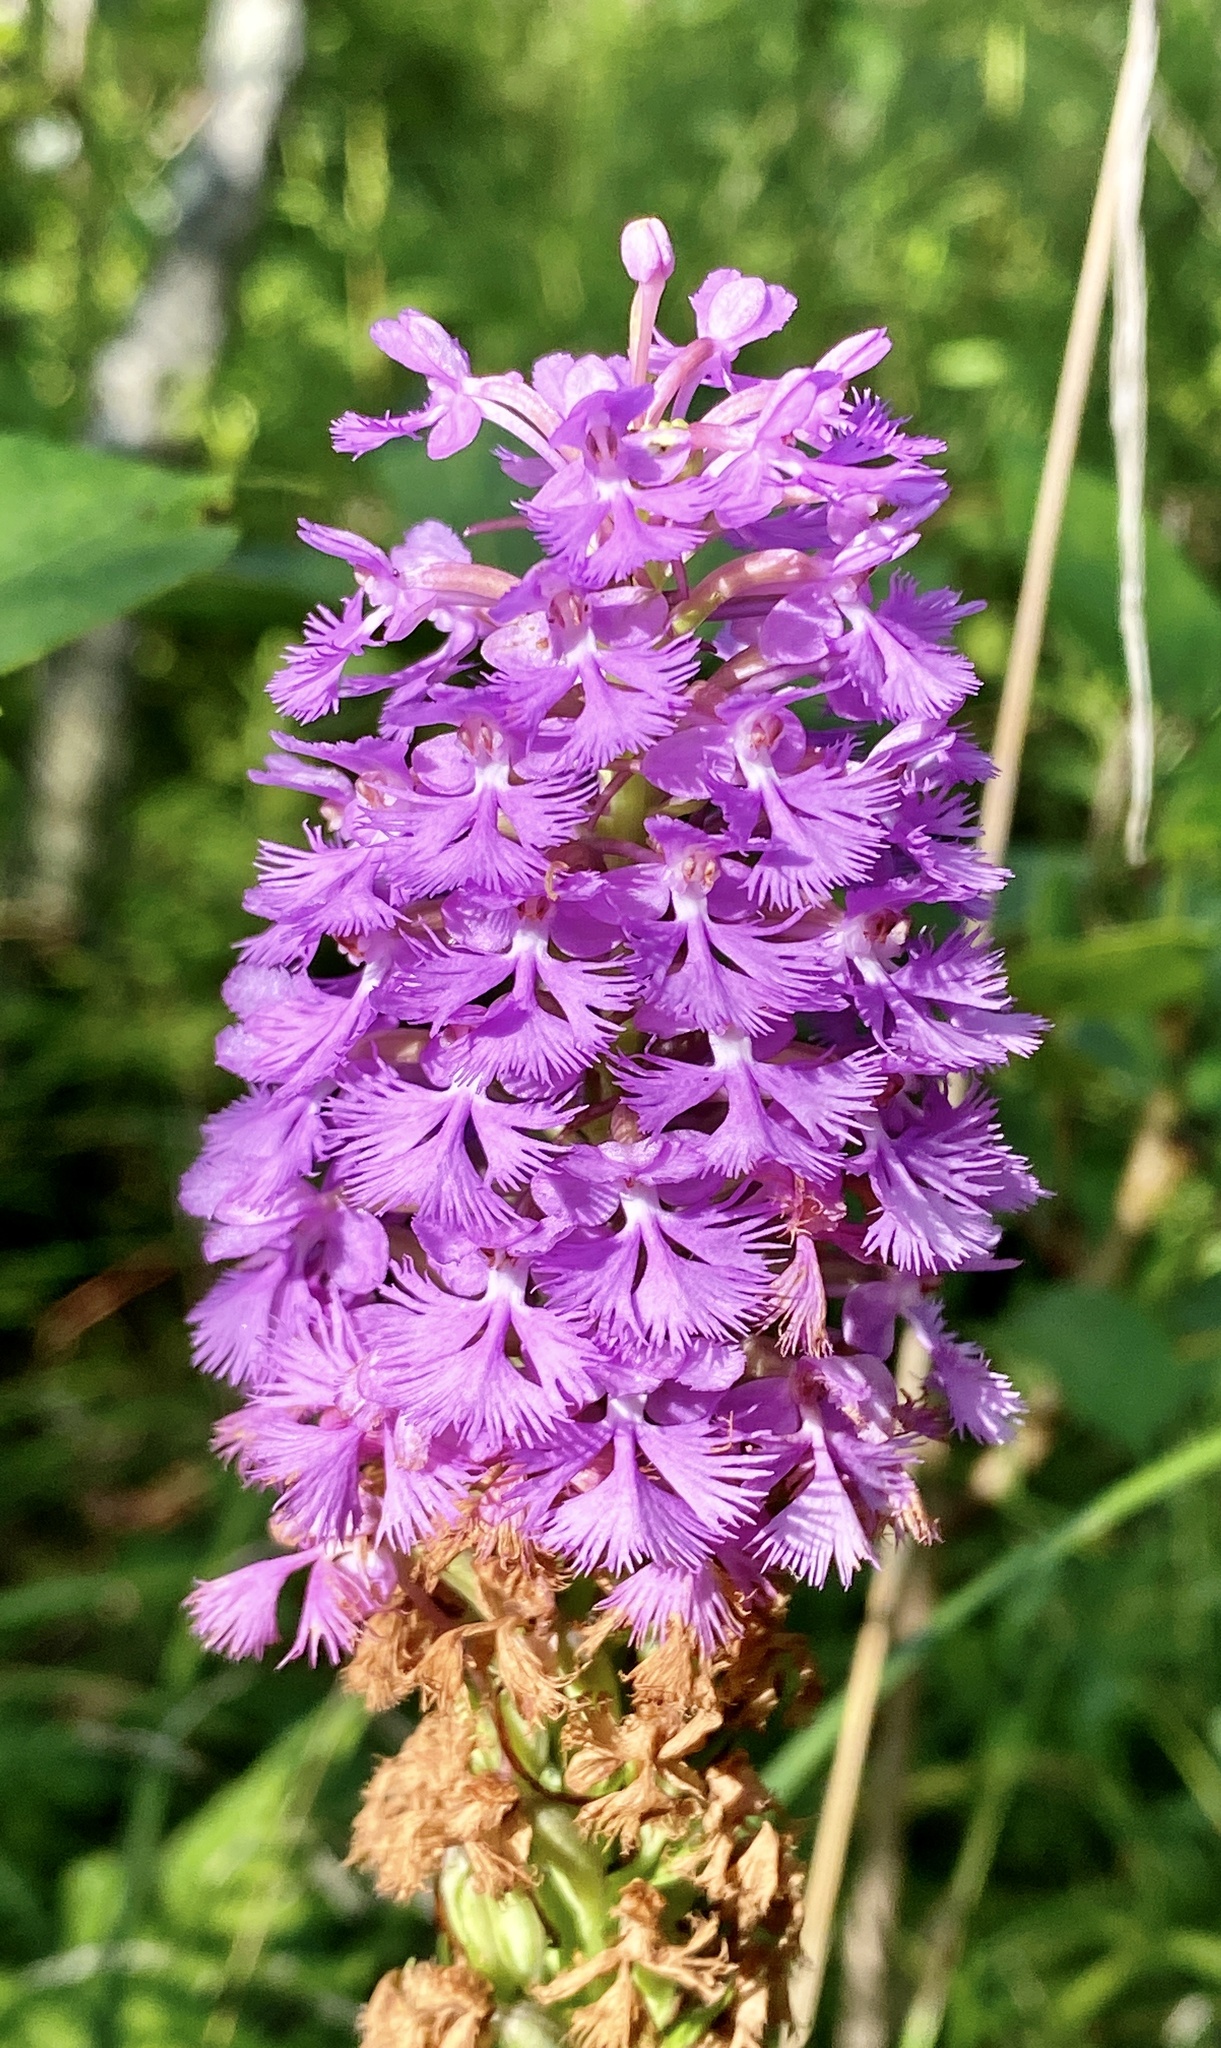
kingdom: Plantae
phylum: Tracheophyta
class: Liliopsida
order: Asparagales
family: Orchidaceae
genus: Platanthera
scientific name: Platanthera psycodes
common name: Lesser purple fringed orchid
